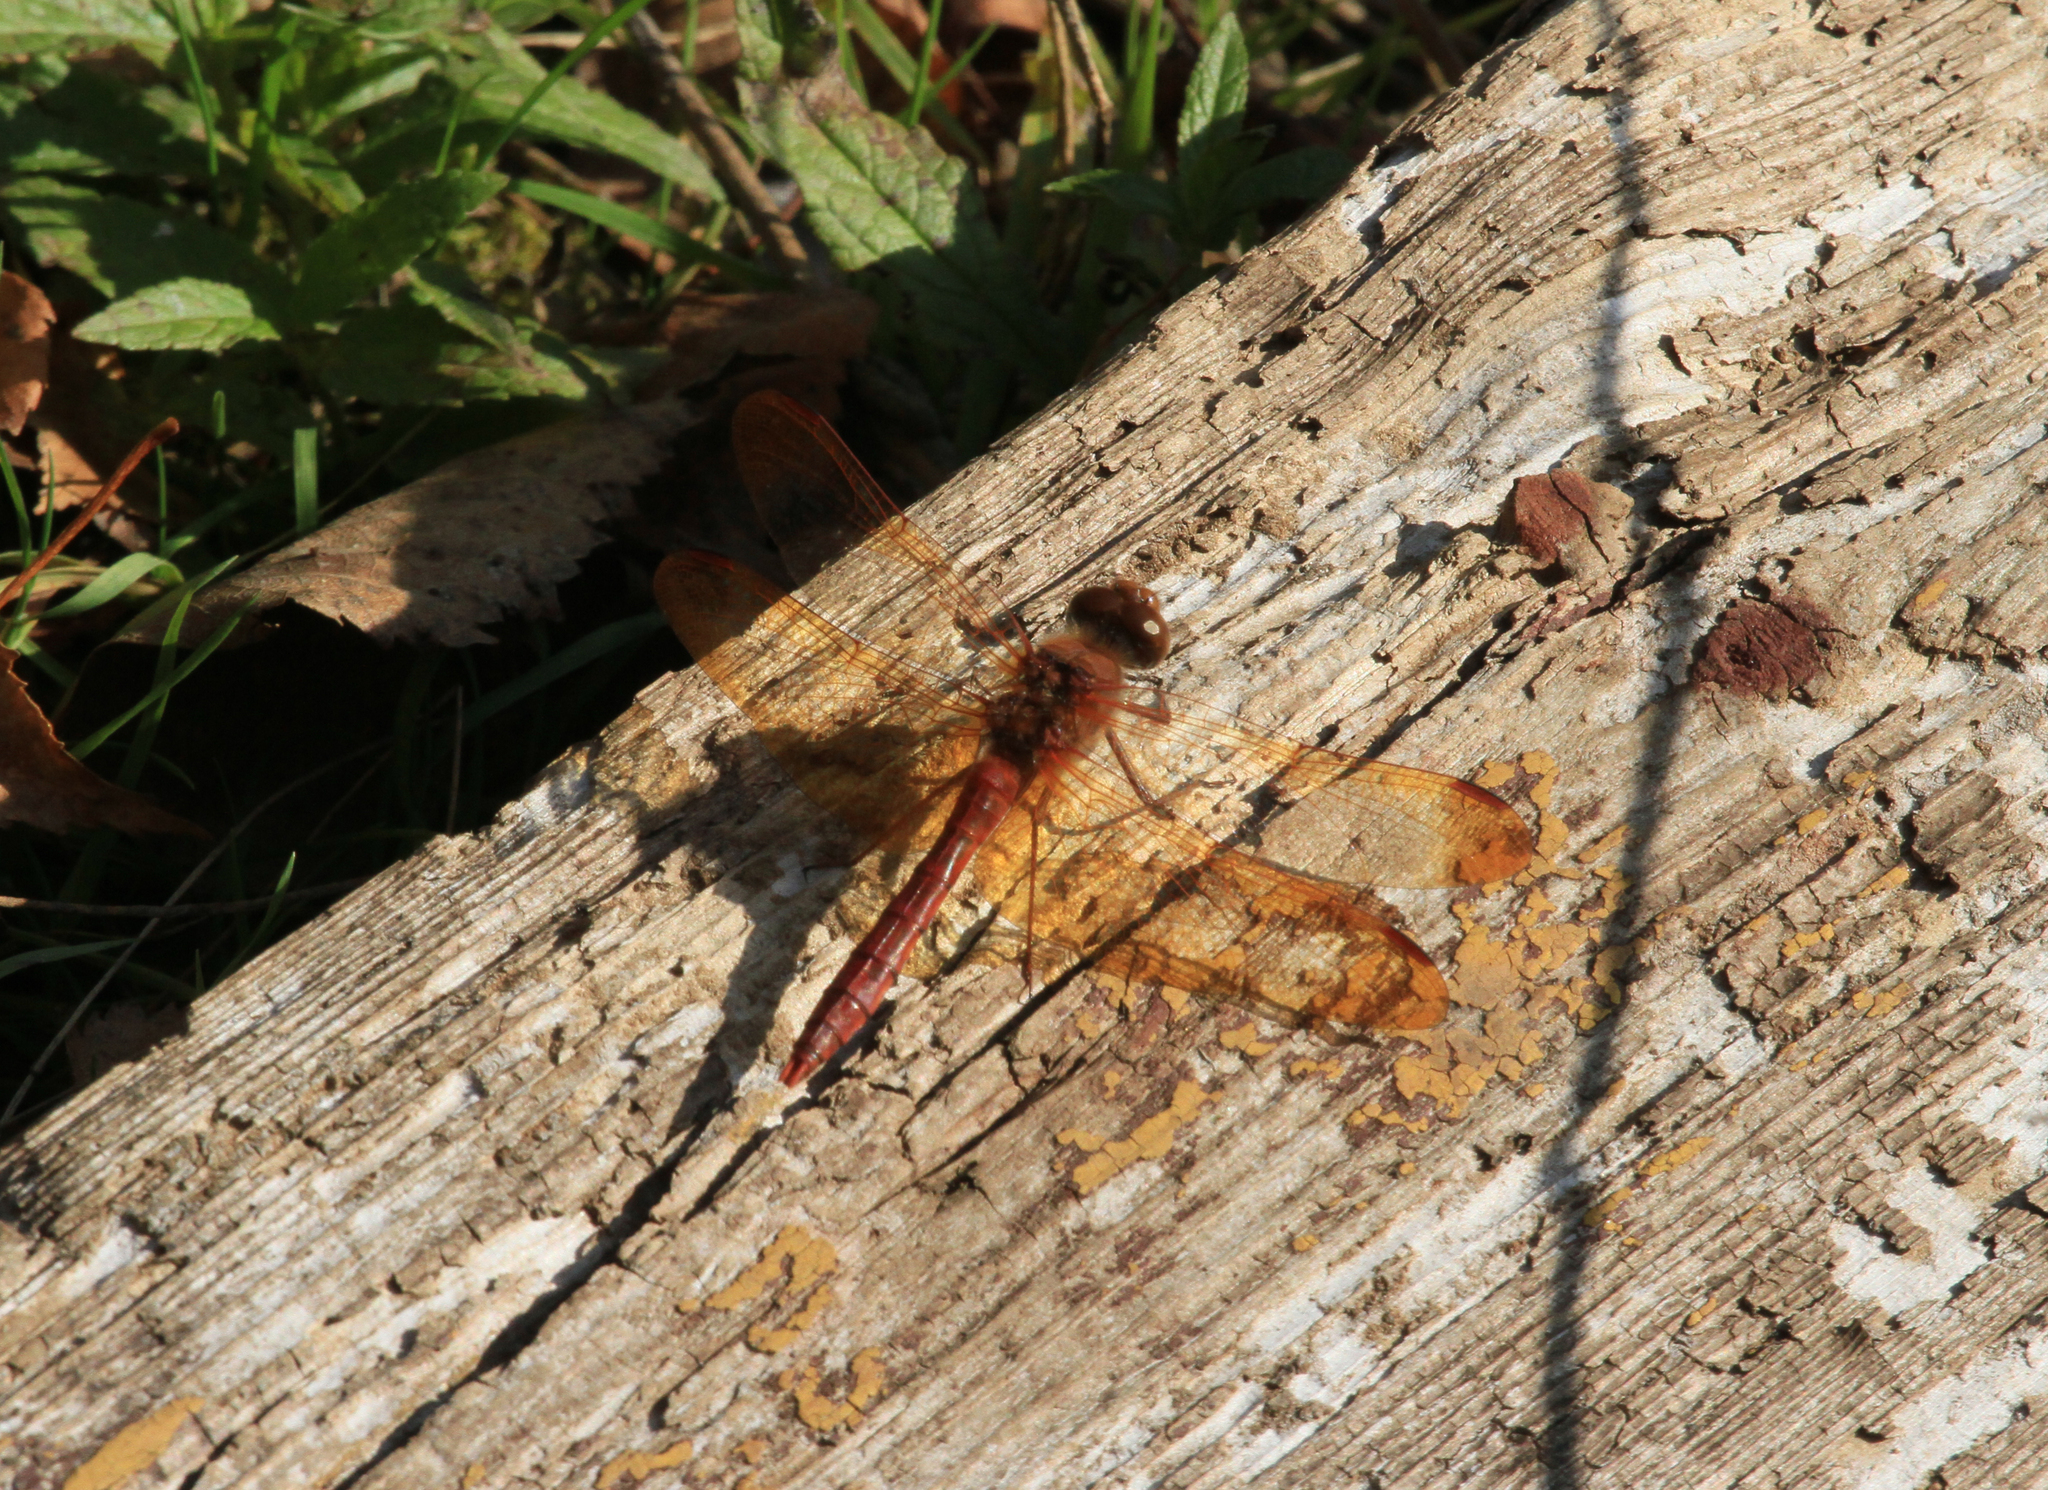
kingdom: Animalia
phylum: Arthropoda
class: Insecta
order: Odonata
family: Libellulidae
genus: Sympetrum
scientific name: Sympetrum croceolum
